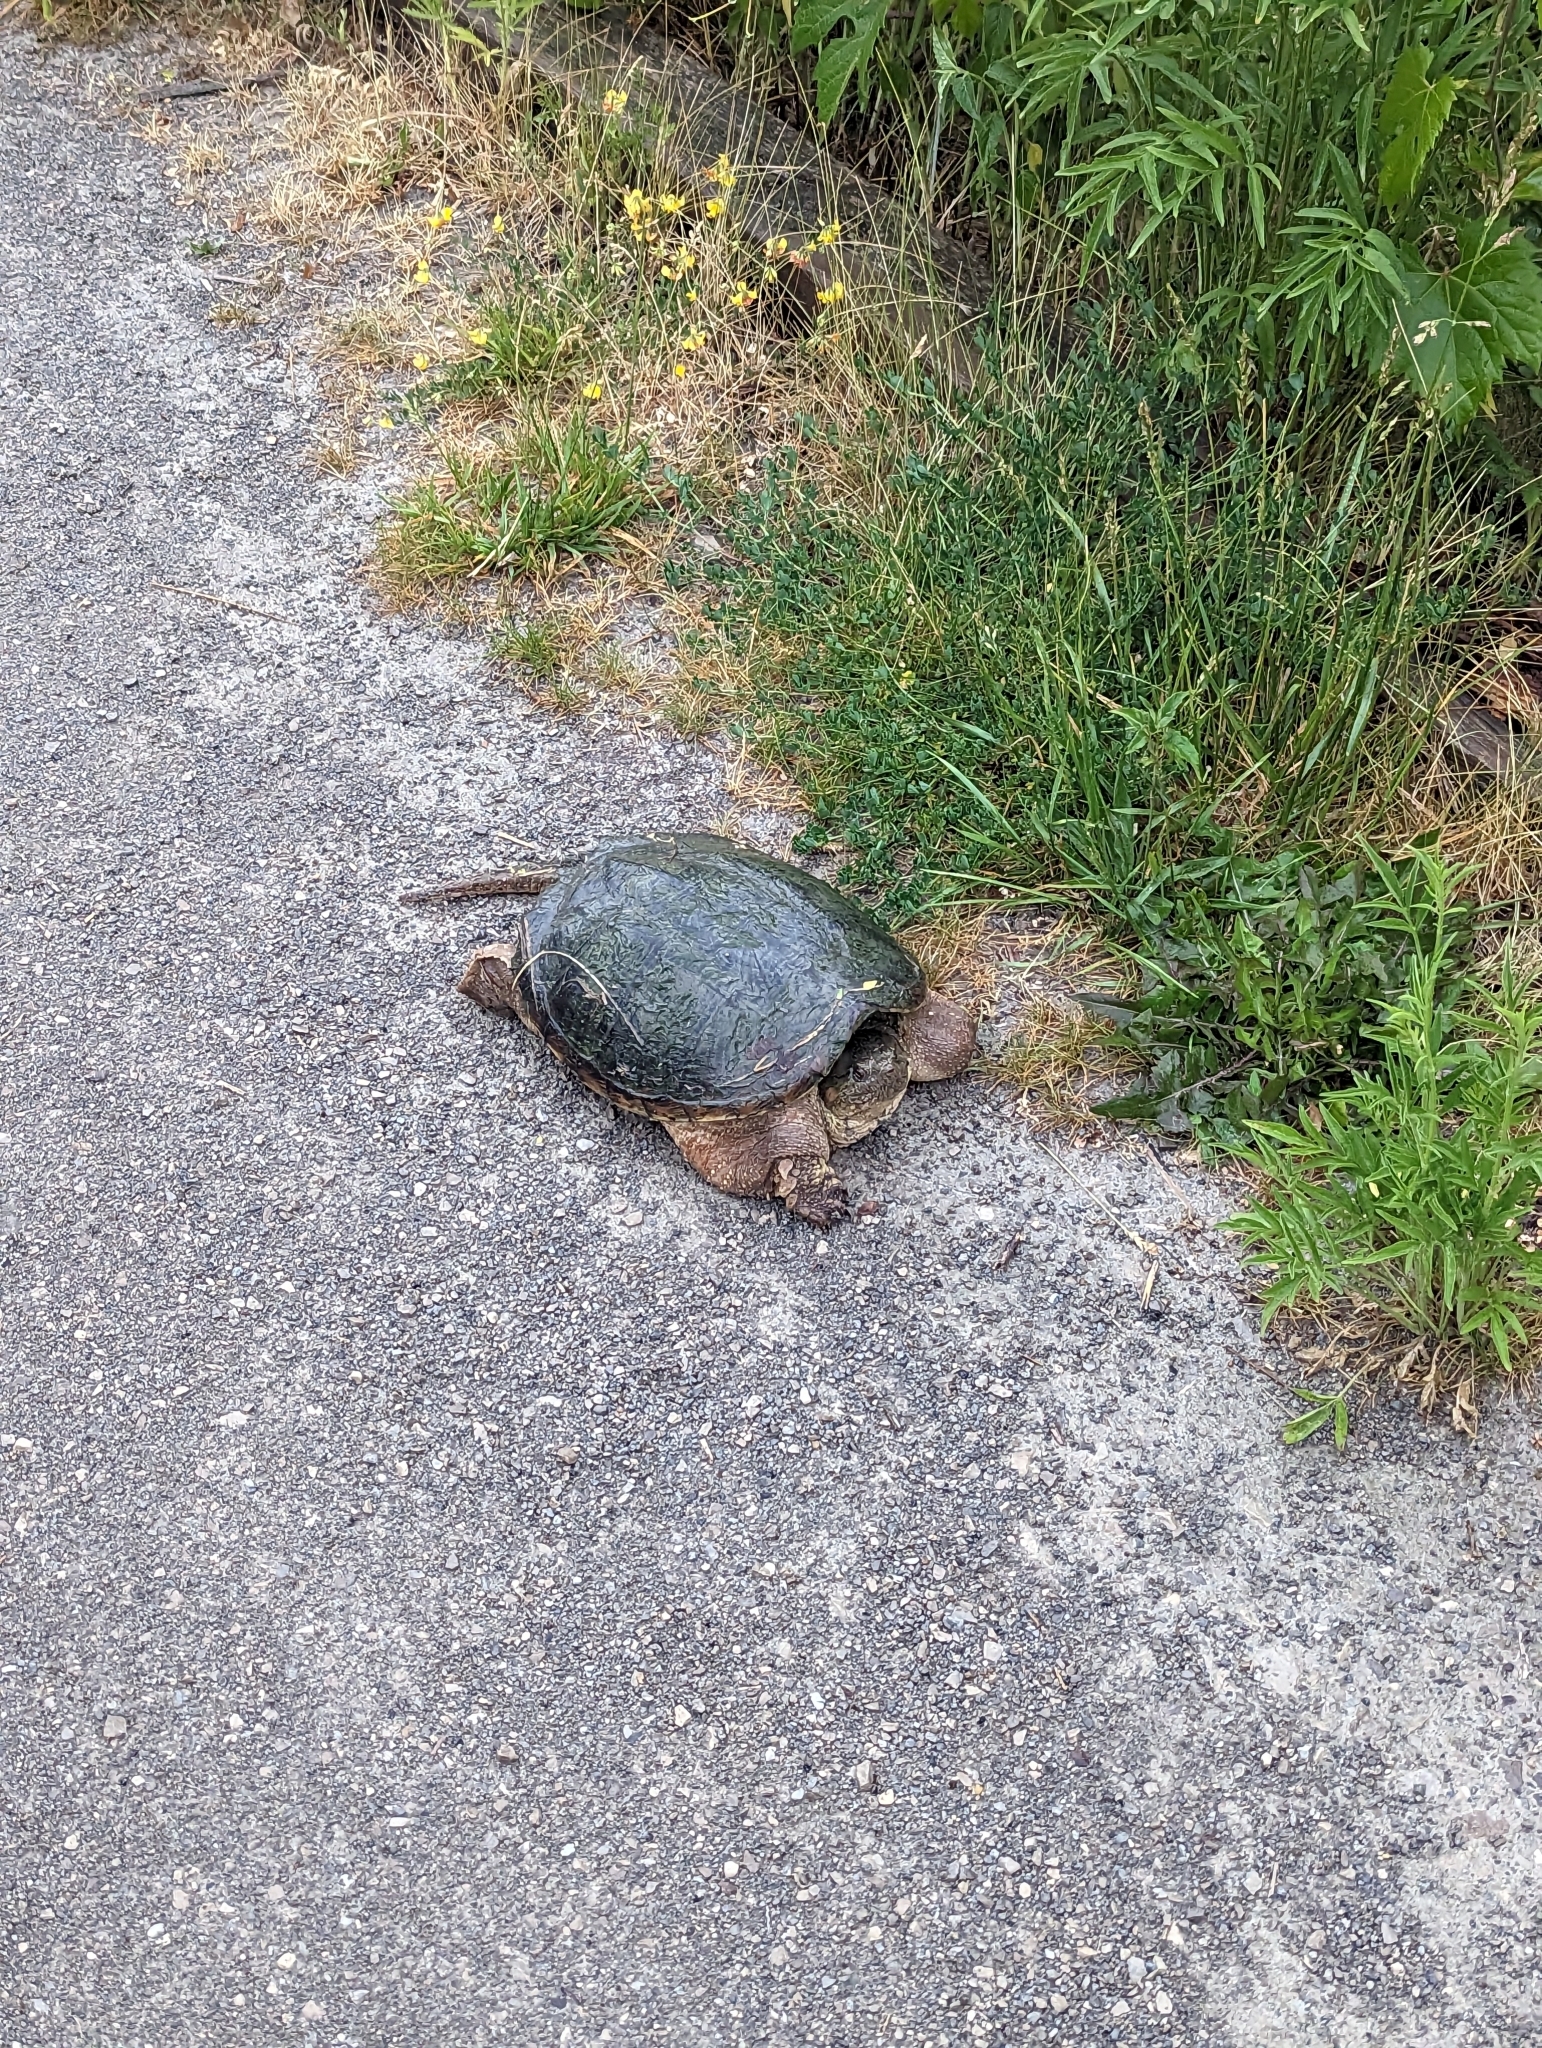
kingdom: Animalia
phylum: Chordata
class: Testudines
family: Chelydridae
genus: Chelydra
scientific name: Chelydra serpentina
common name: Common snapping turtle
